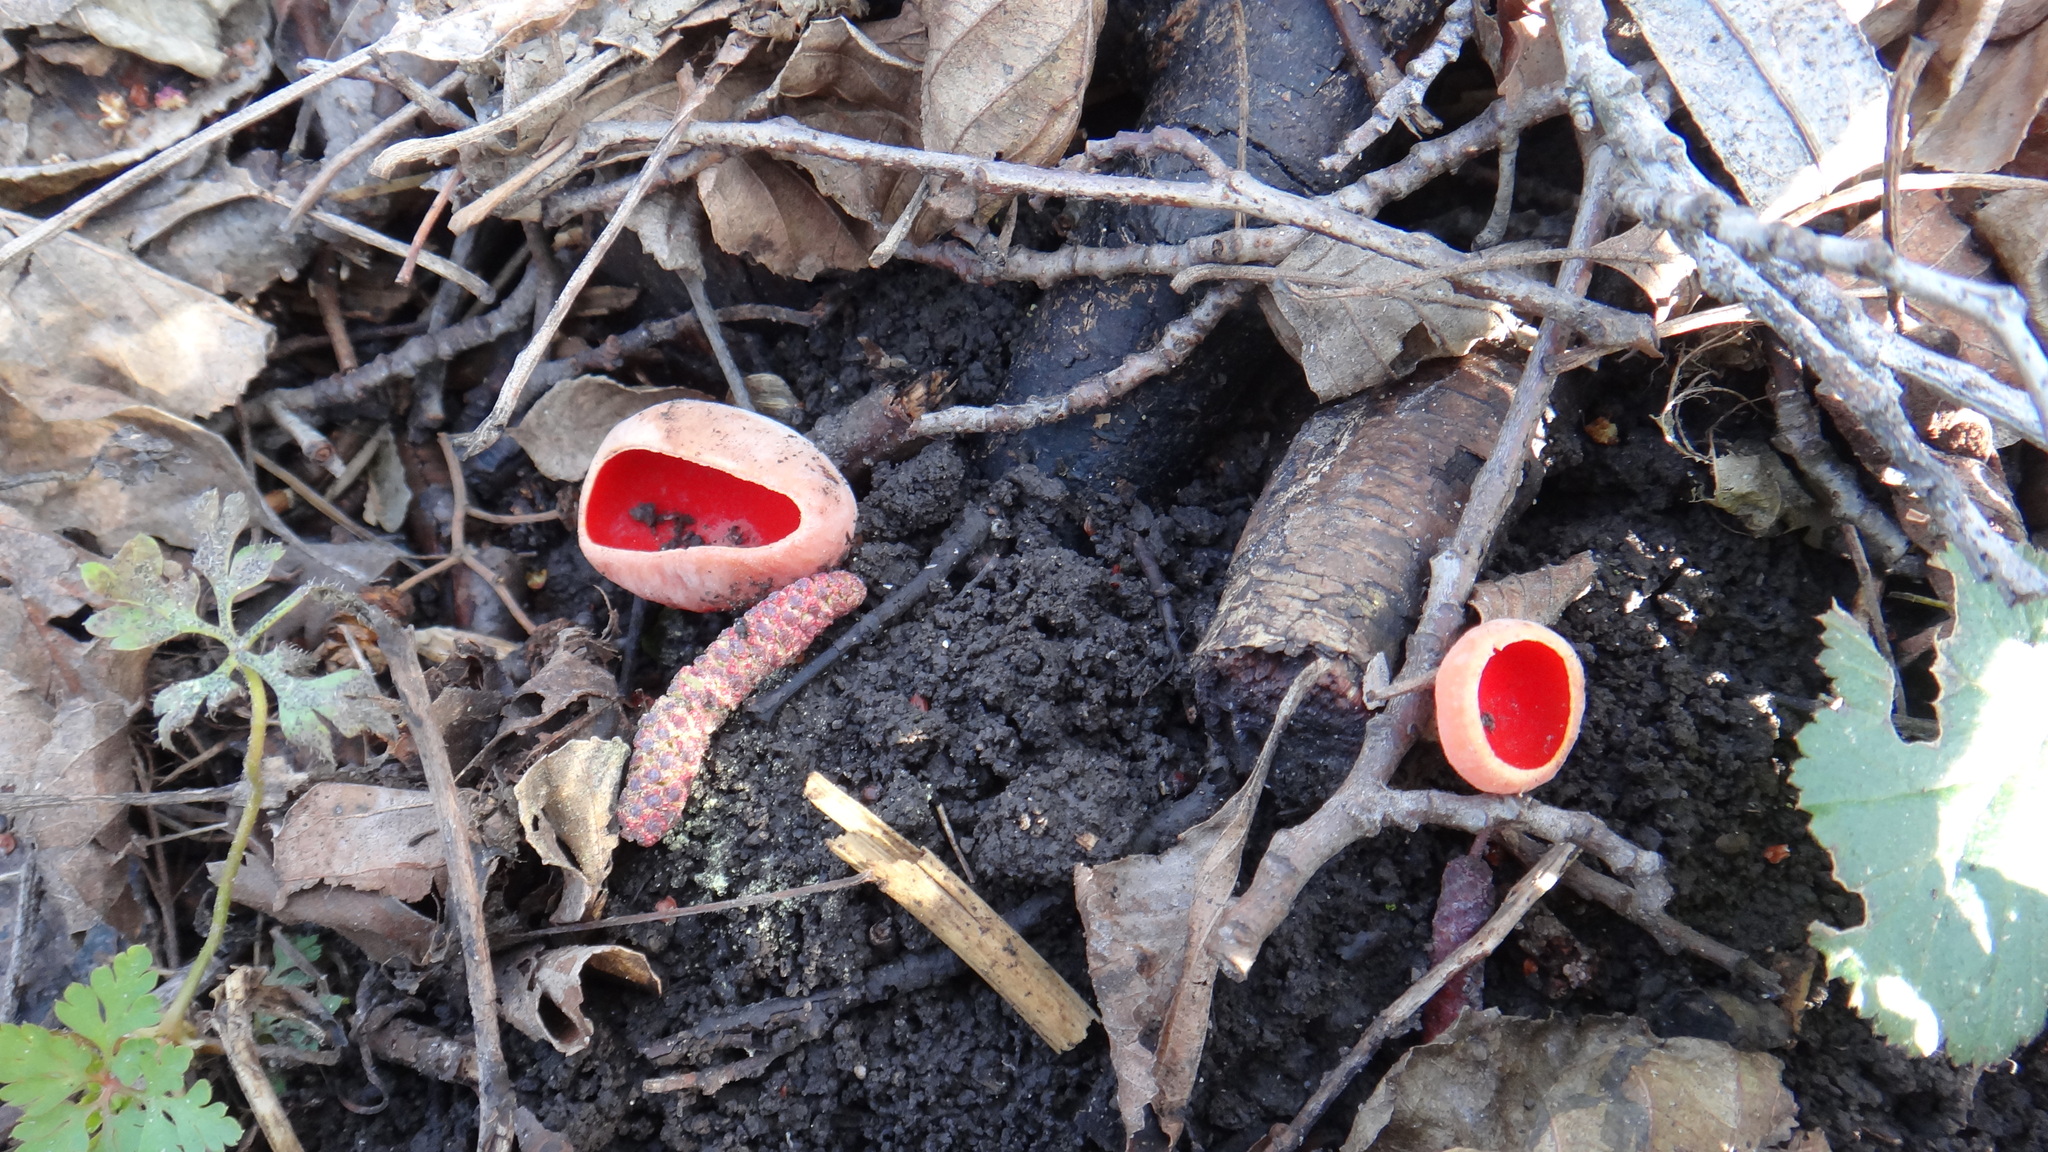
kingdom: Fungi
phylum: Ascomycota
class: Pezizomycetes
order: Pezizales
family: Sarcoscyphaceae
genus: Sarcoscypha
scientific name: Sarcoscypha
